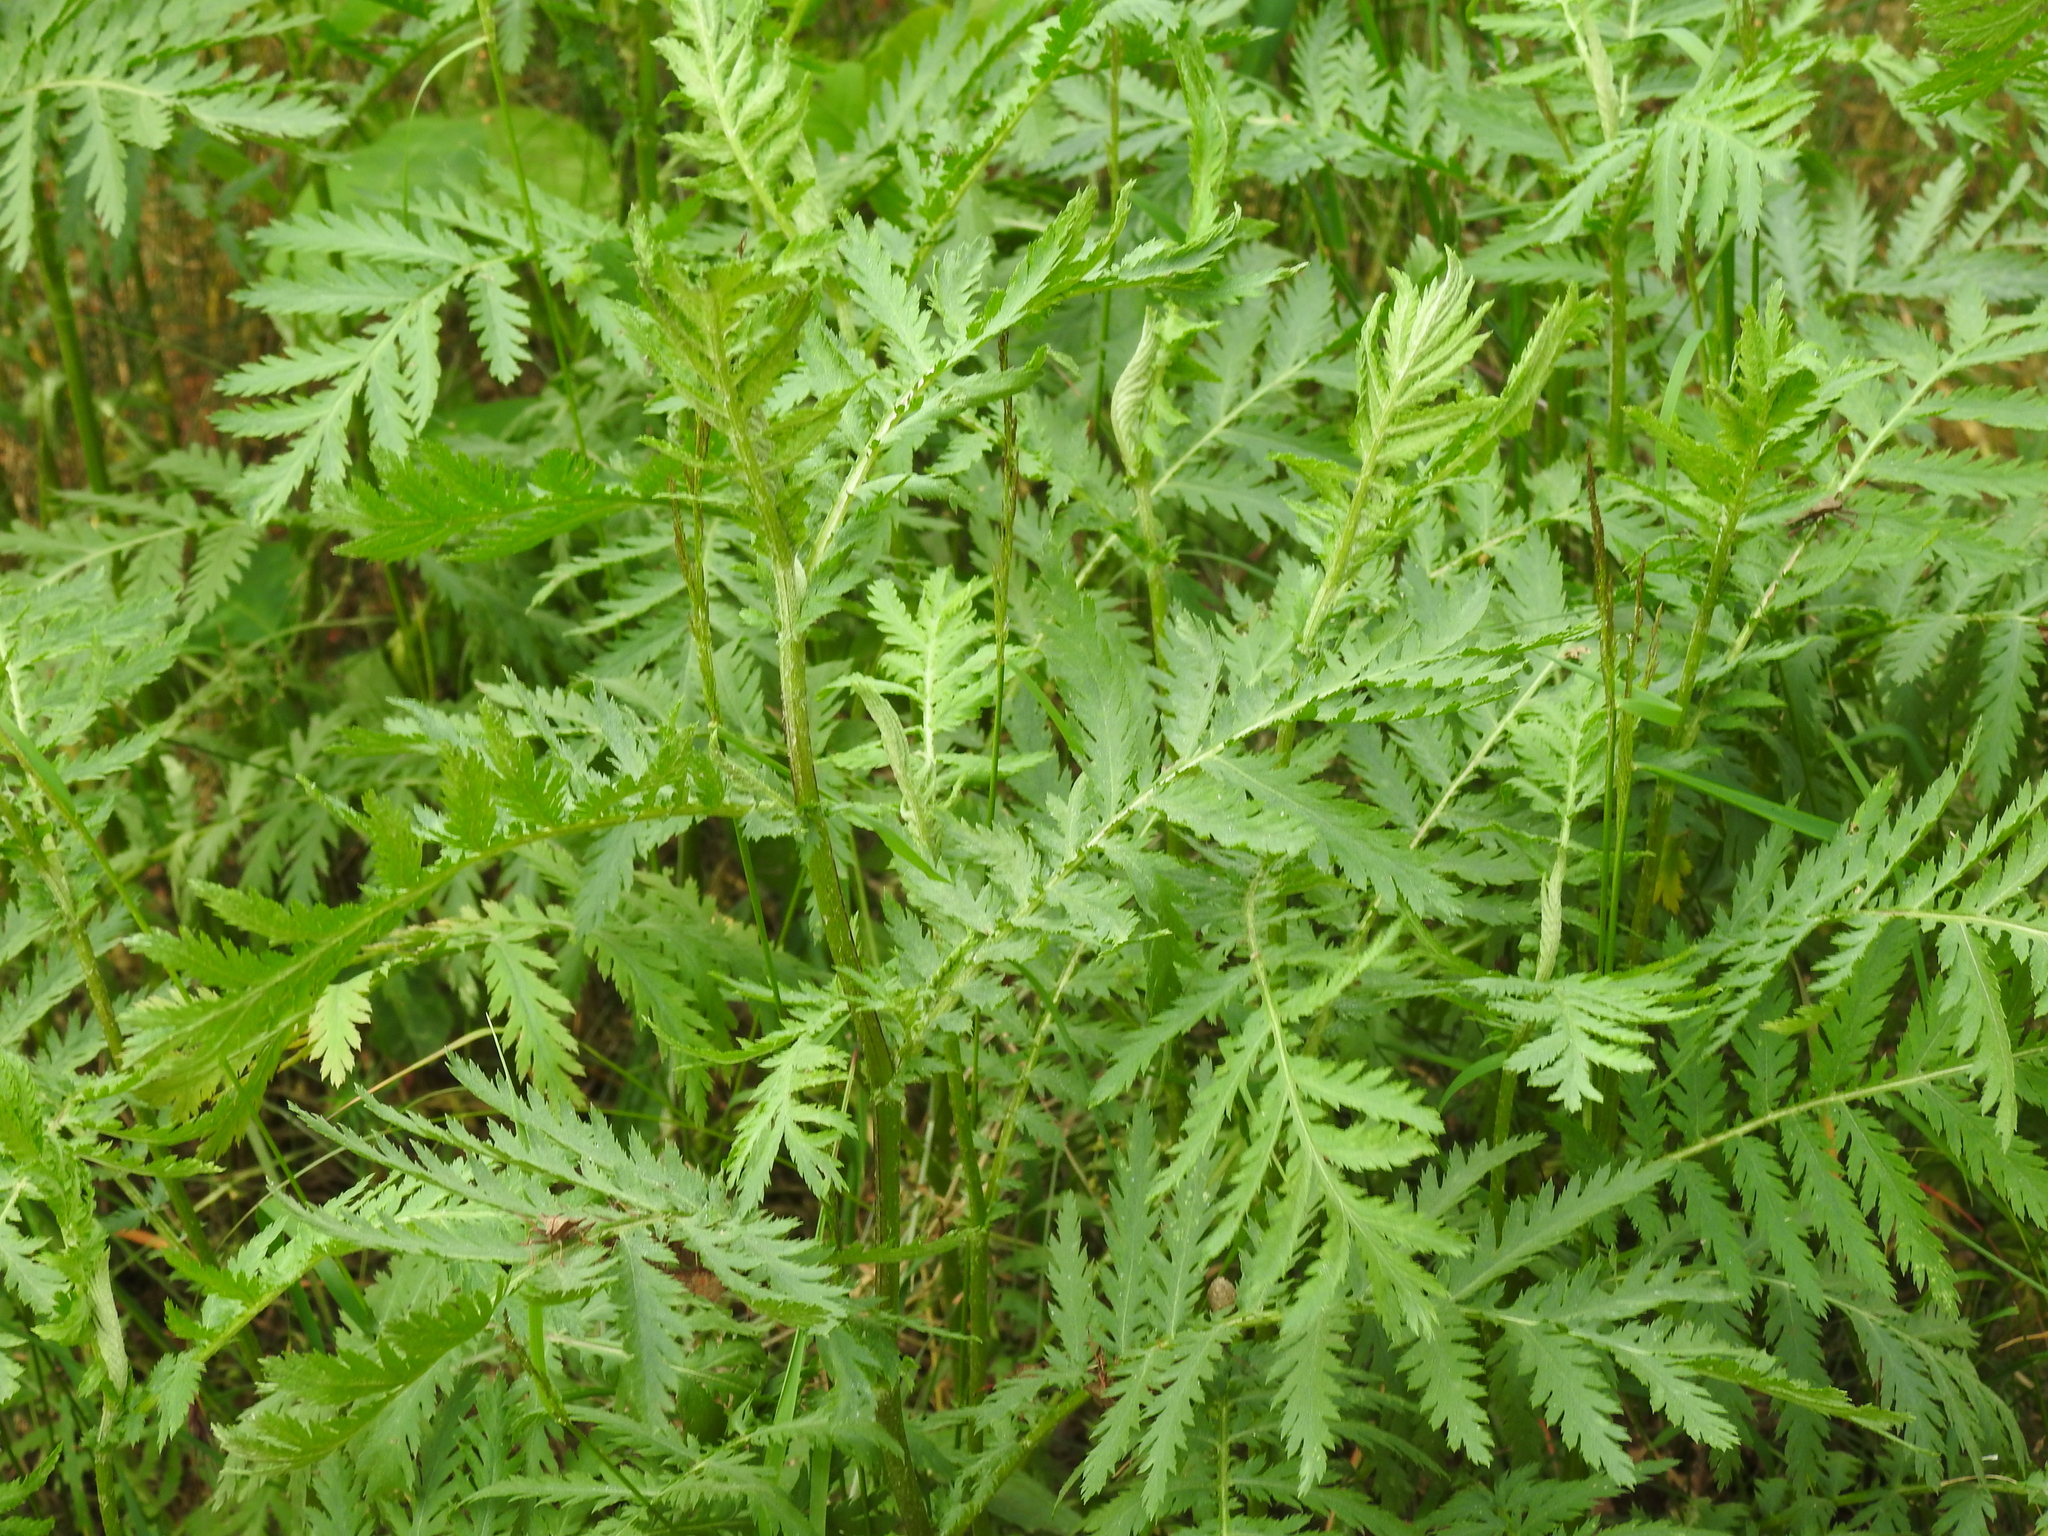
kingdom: Plantae
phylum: Tracheophyta
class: Magnoliopsida
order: Asterales
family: Asteraceae
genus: Tanacetum
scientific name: Tanacetum vulgare
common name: Common tansy
